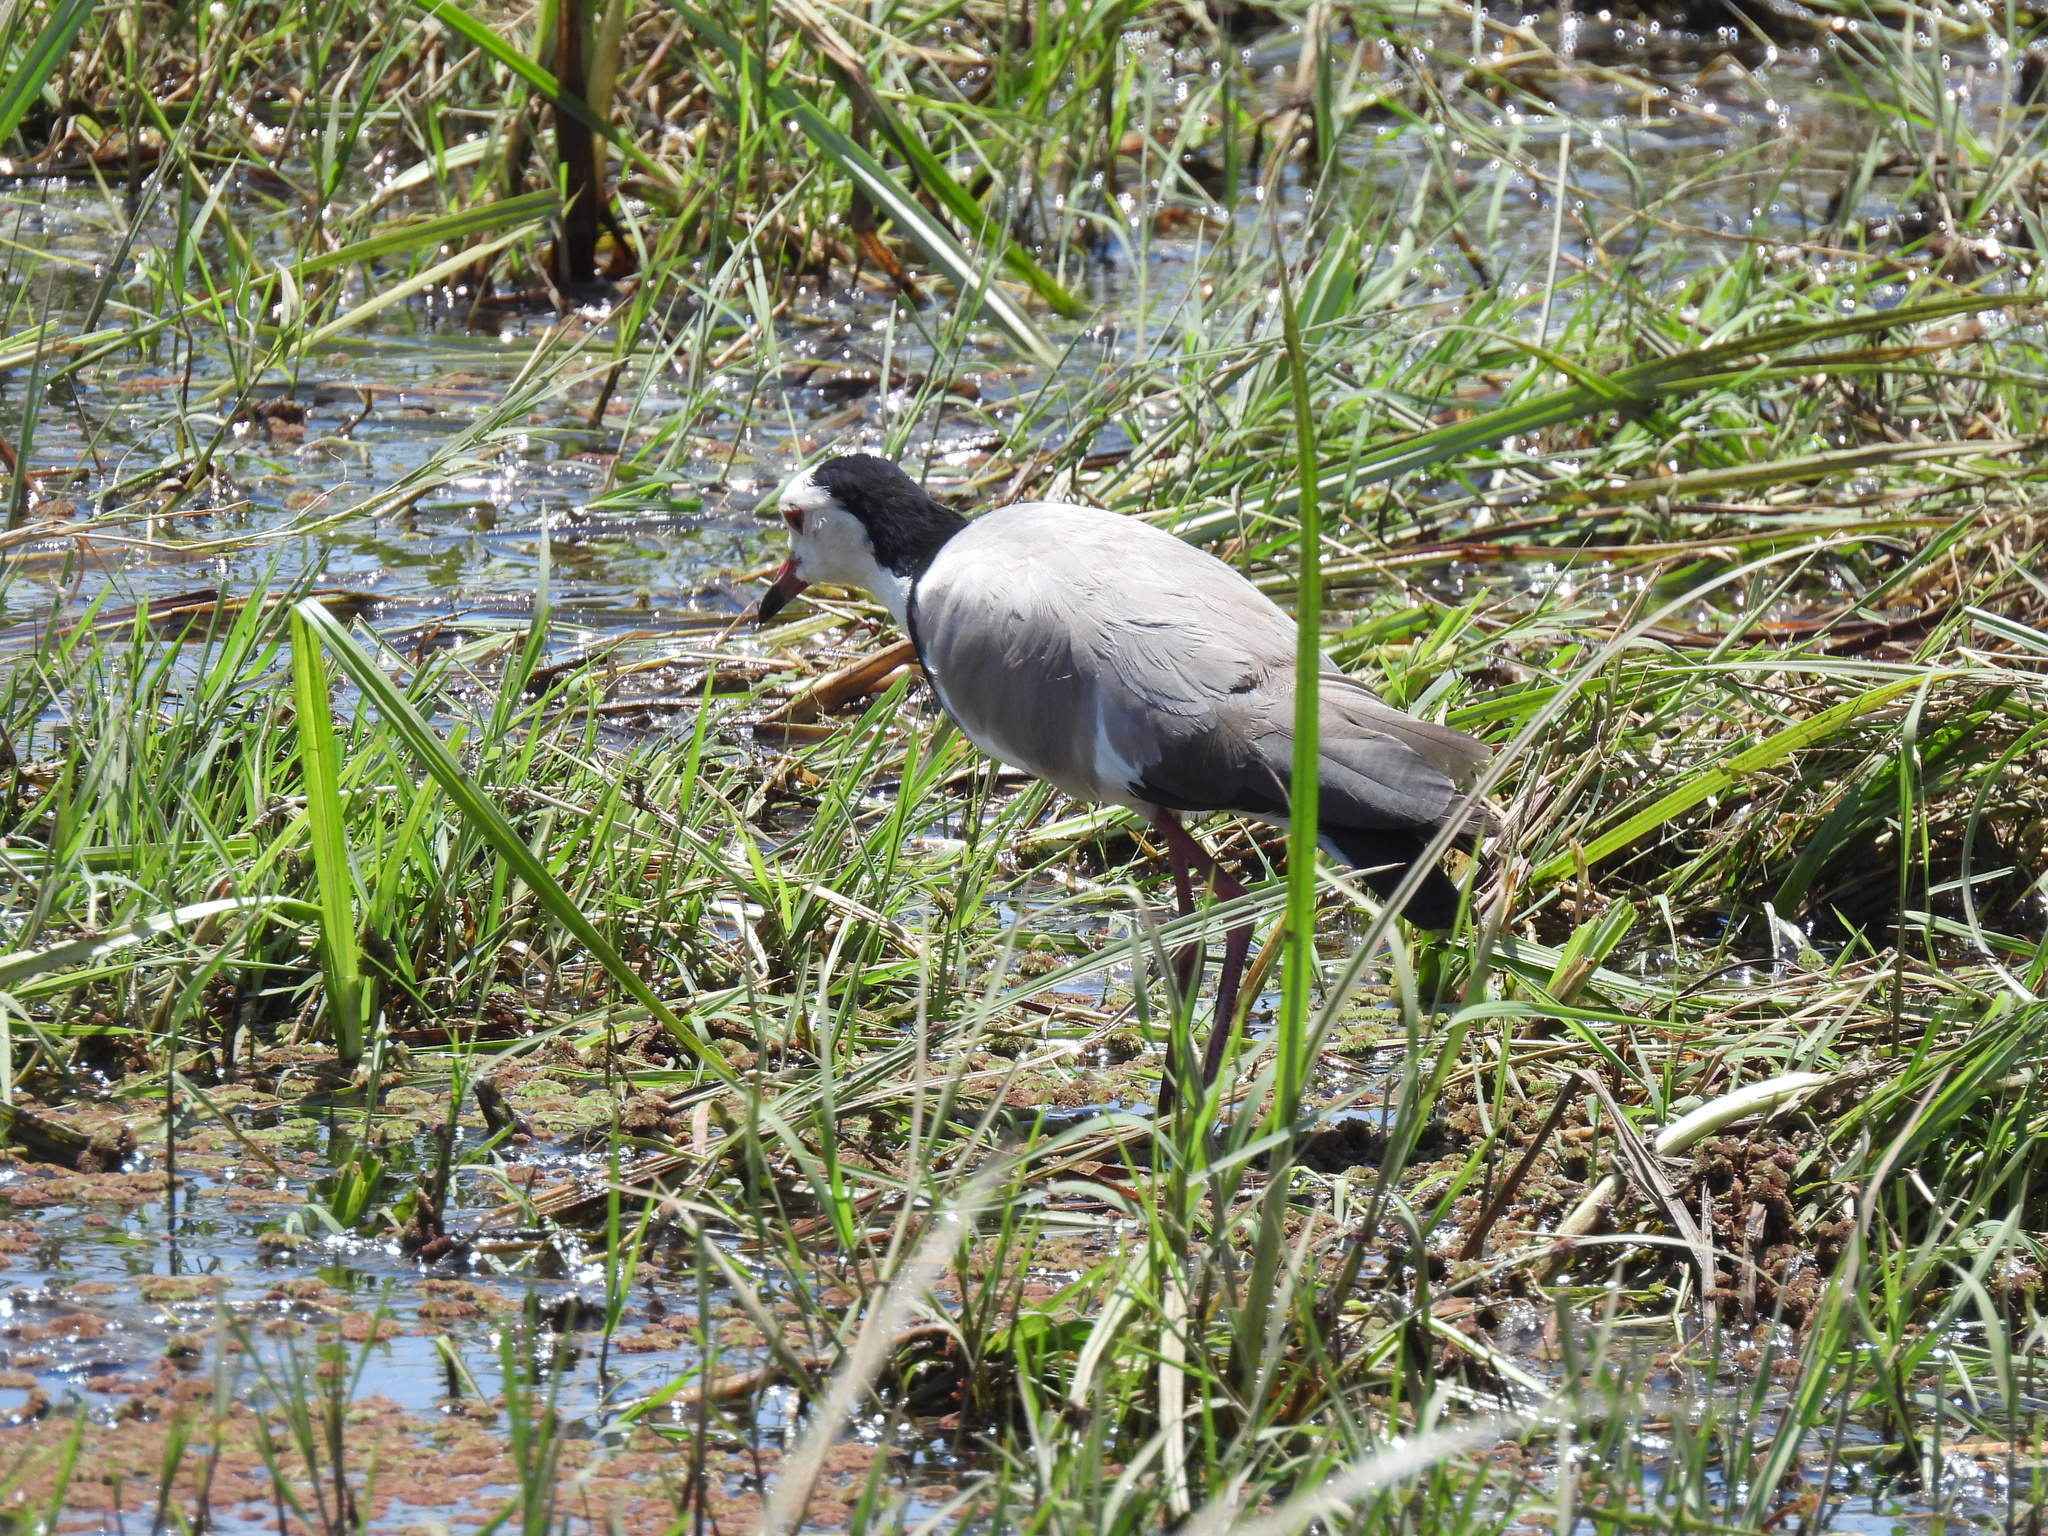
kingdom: Animalia
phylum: Chordata
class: Aves
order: Charadriiformes
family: Charadriidae
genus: Vanellus
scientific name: Vanellus crassirostris
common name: Long-toed lapwing
